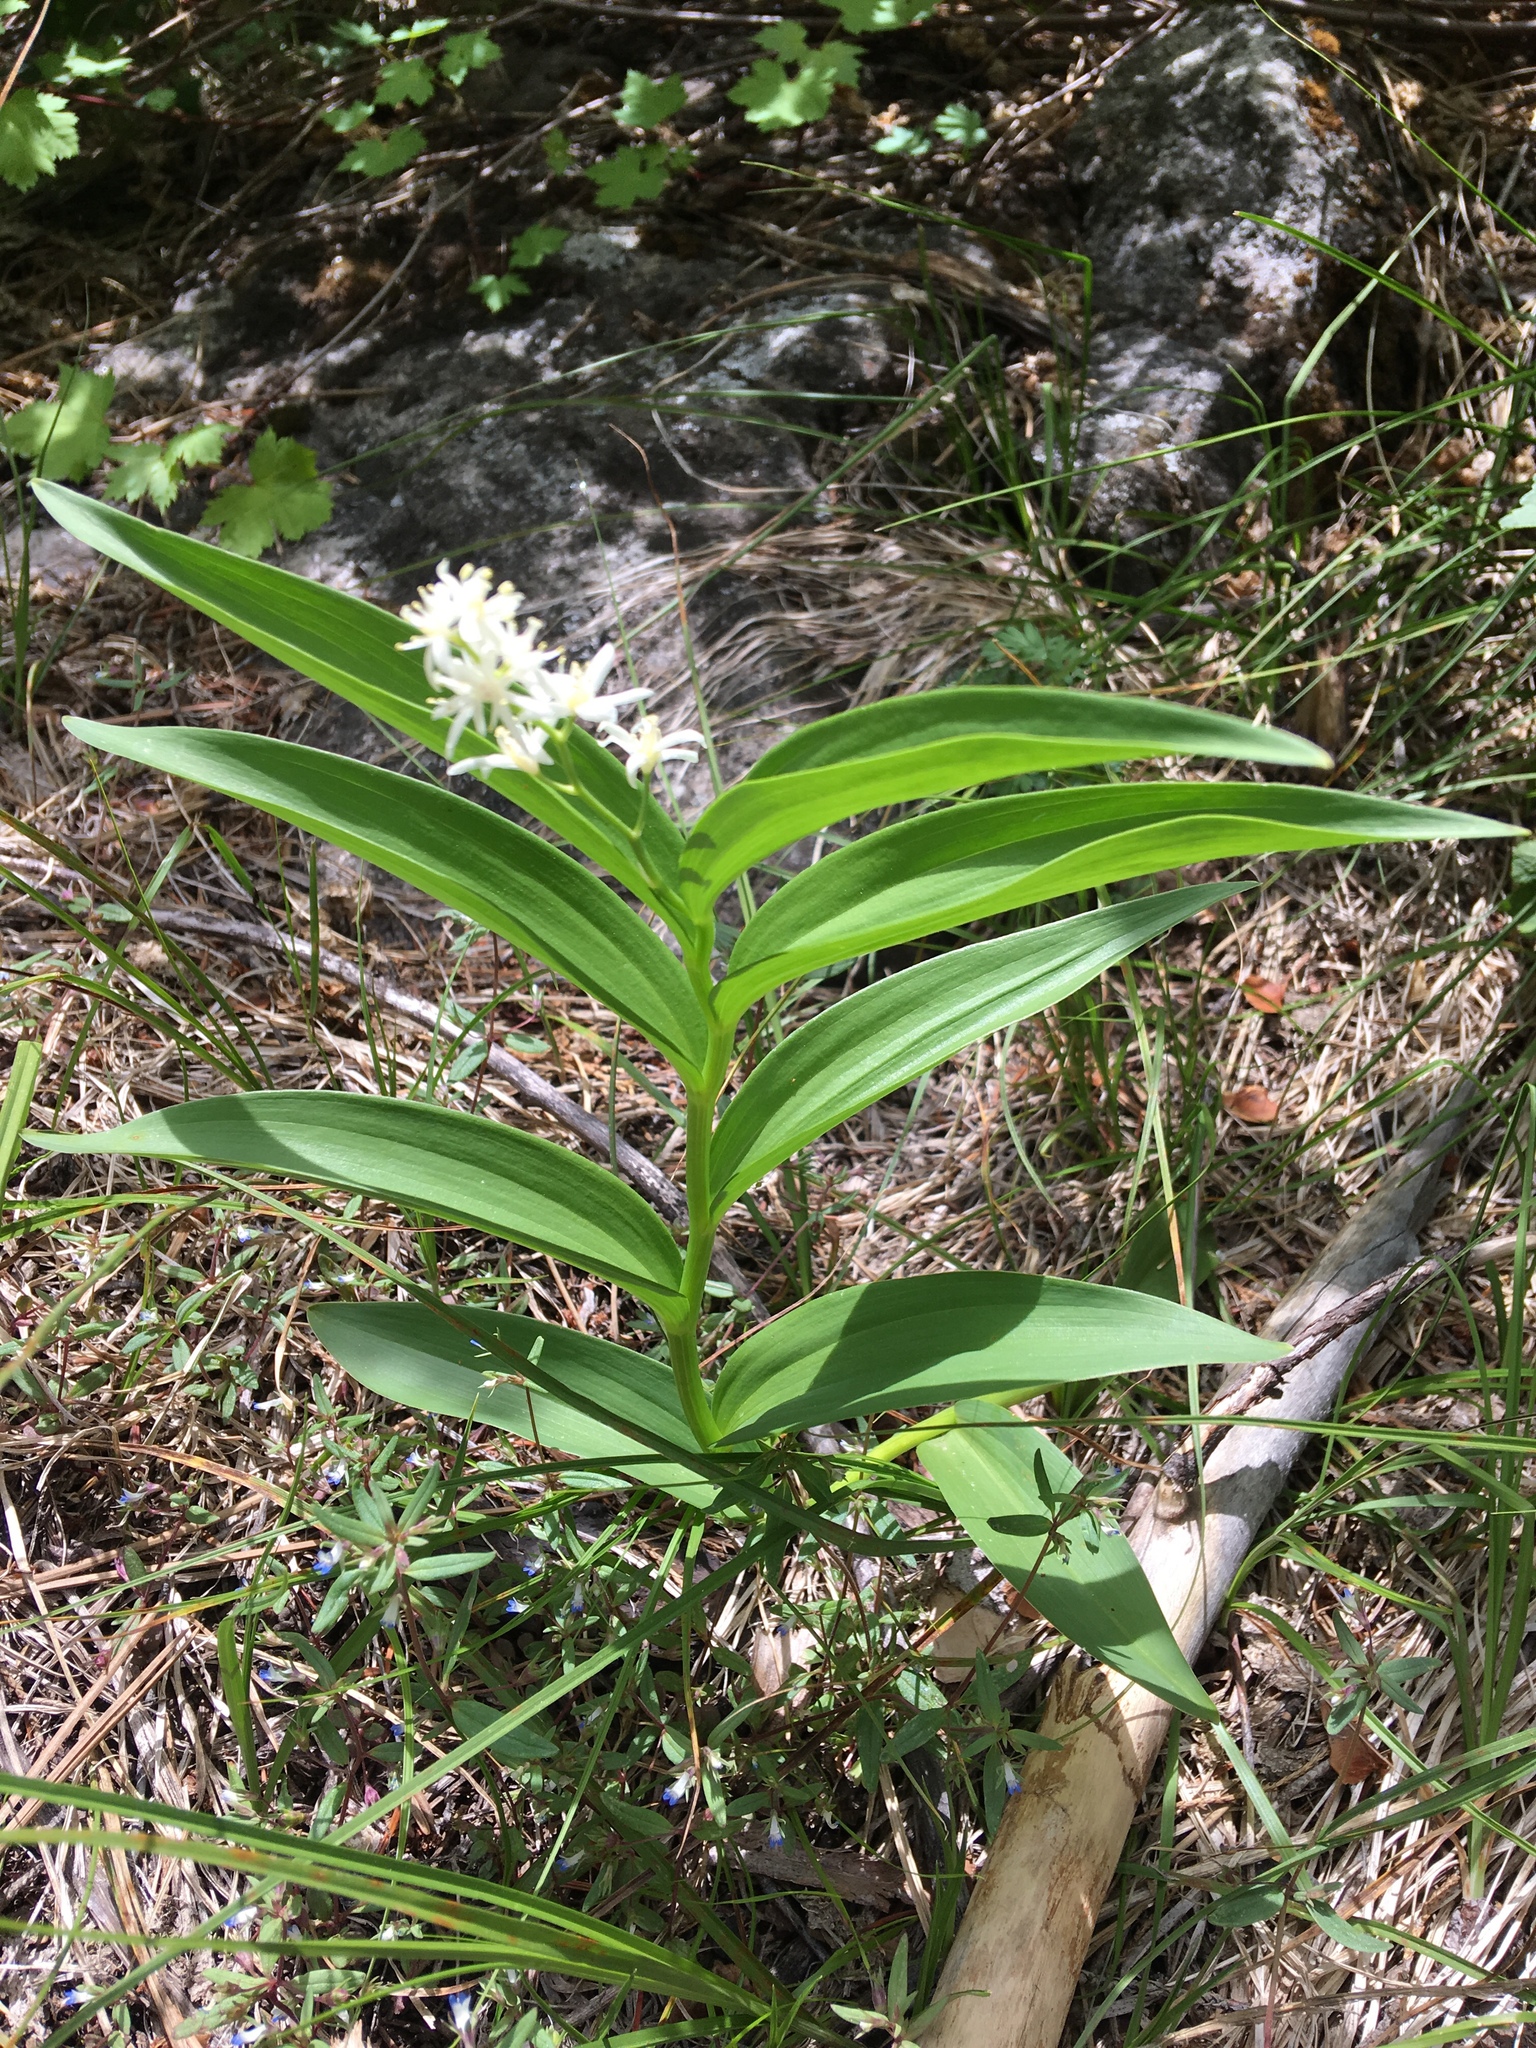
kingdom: Plantae
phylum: Tracheophyta
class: Liliopsida
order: Asparagales
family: Asparagaceae
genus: Maianthemum
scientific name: Maianthemum stellatum
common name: Little false solomon's seal
